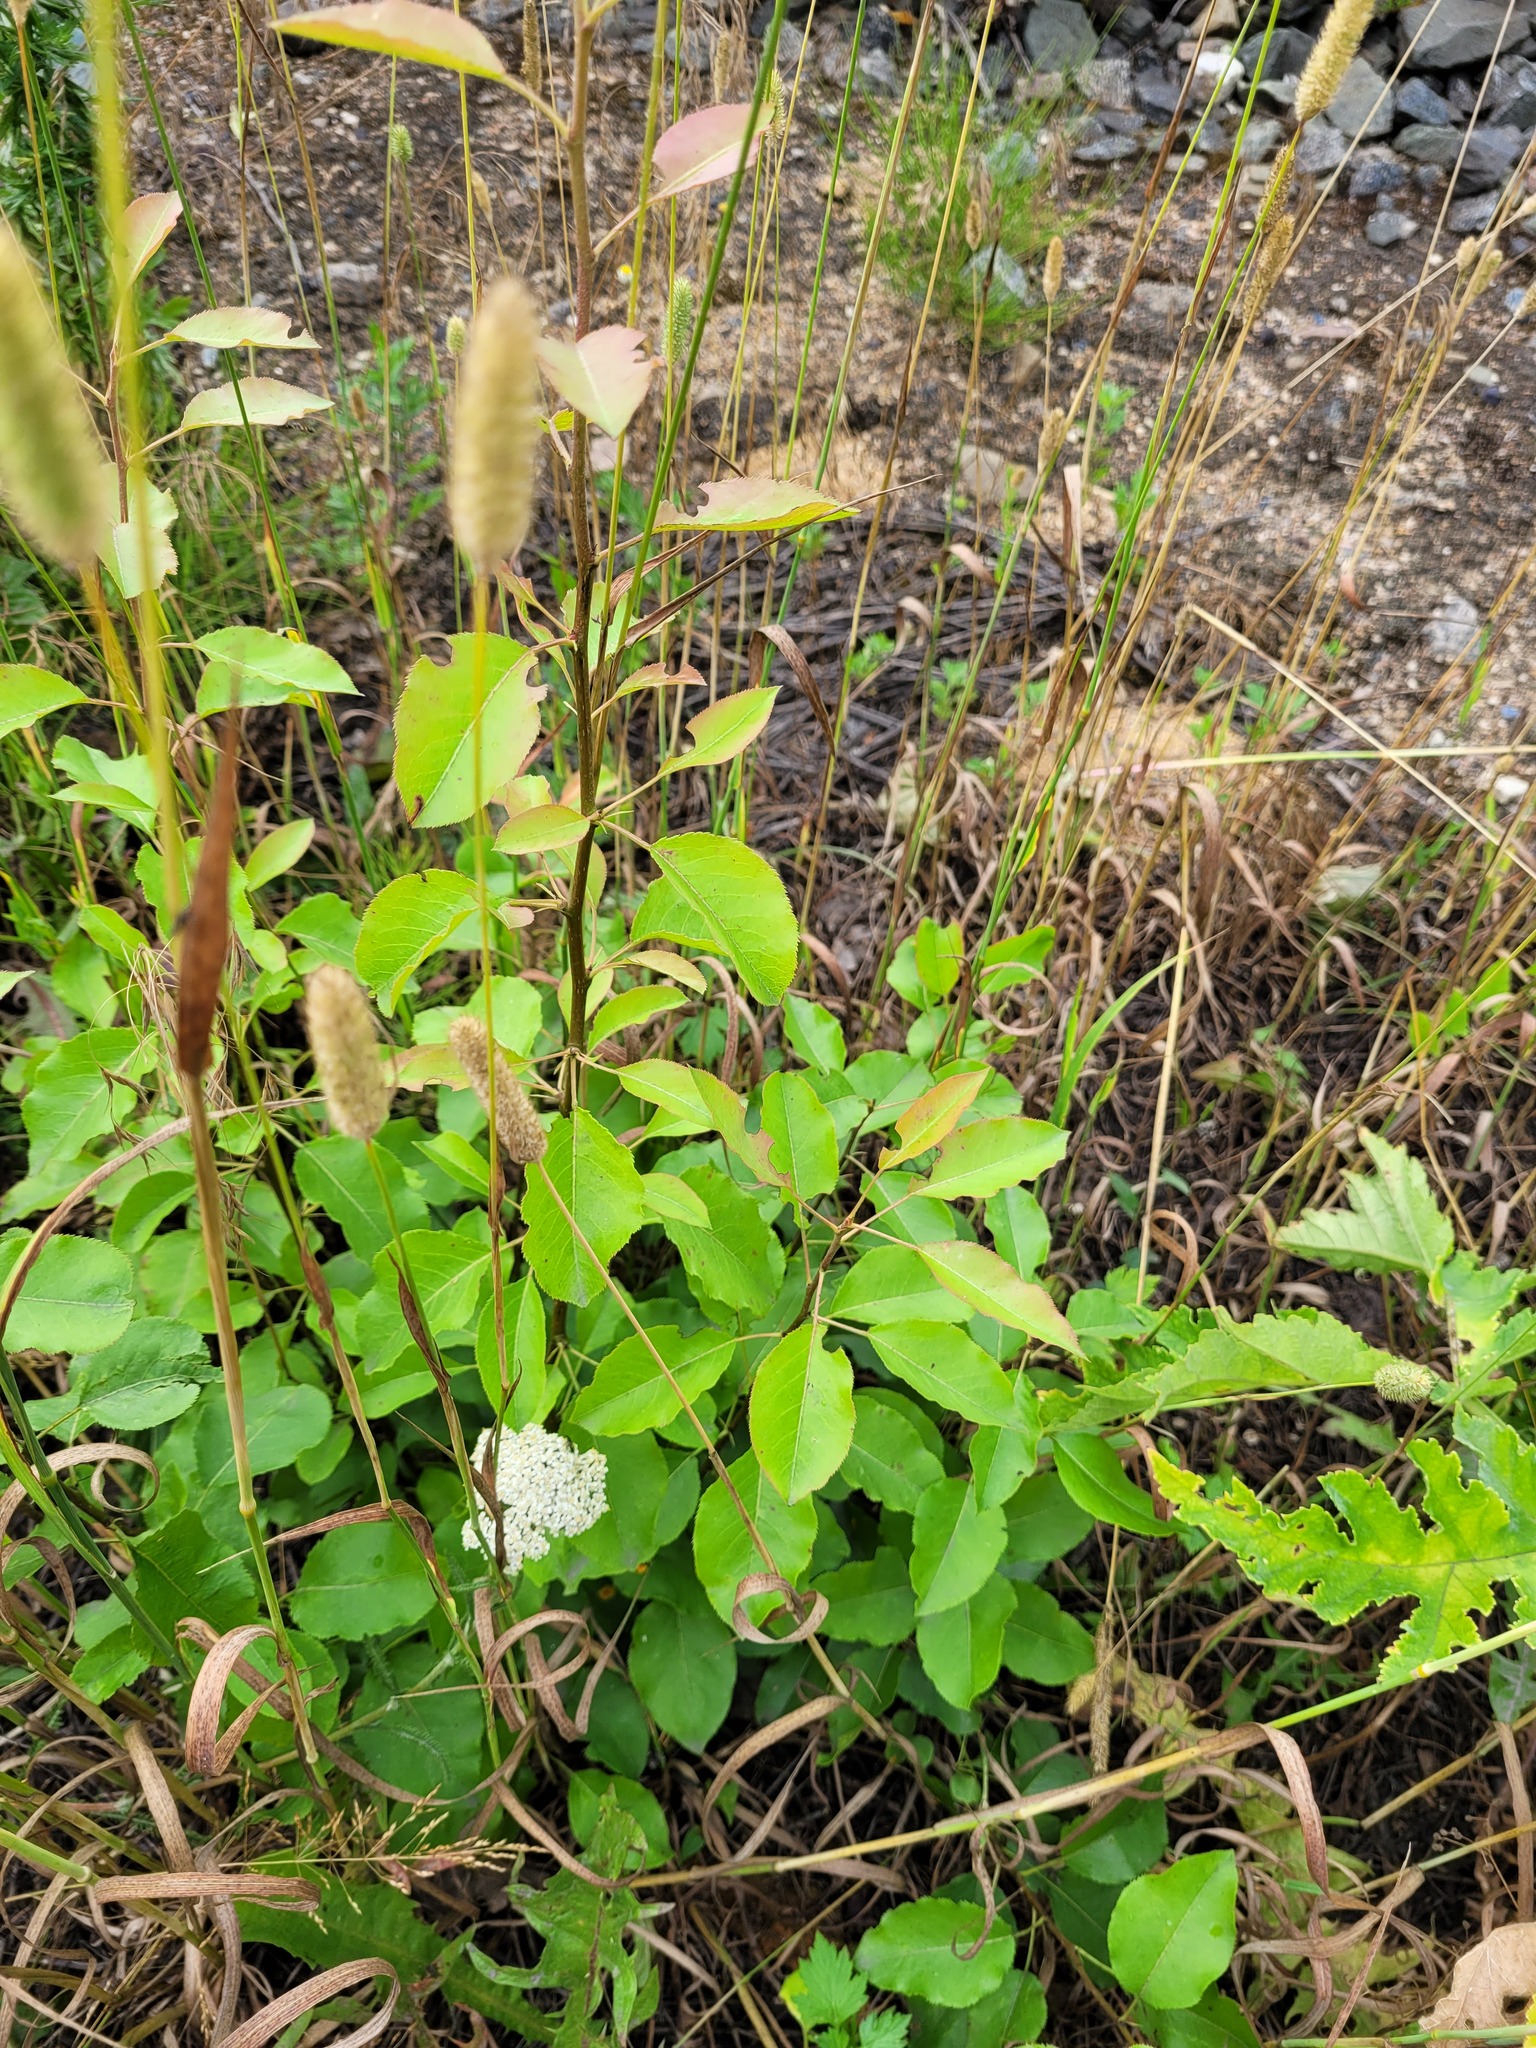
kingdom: Plantae
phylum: Tracheophyta
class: Magnoliopsida
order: Rosales
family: Rosaceae
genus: Pyrus
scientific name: Pyrus communis
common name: Pear
